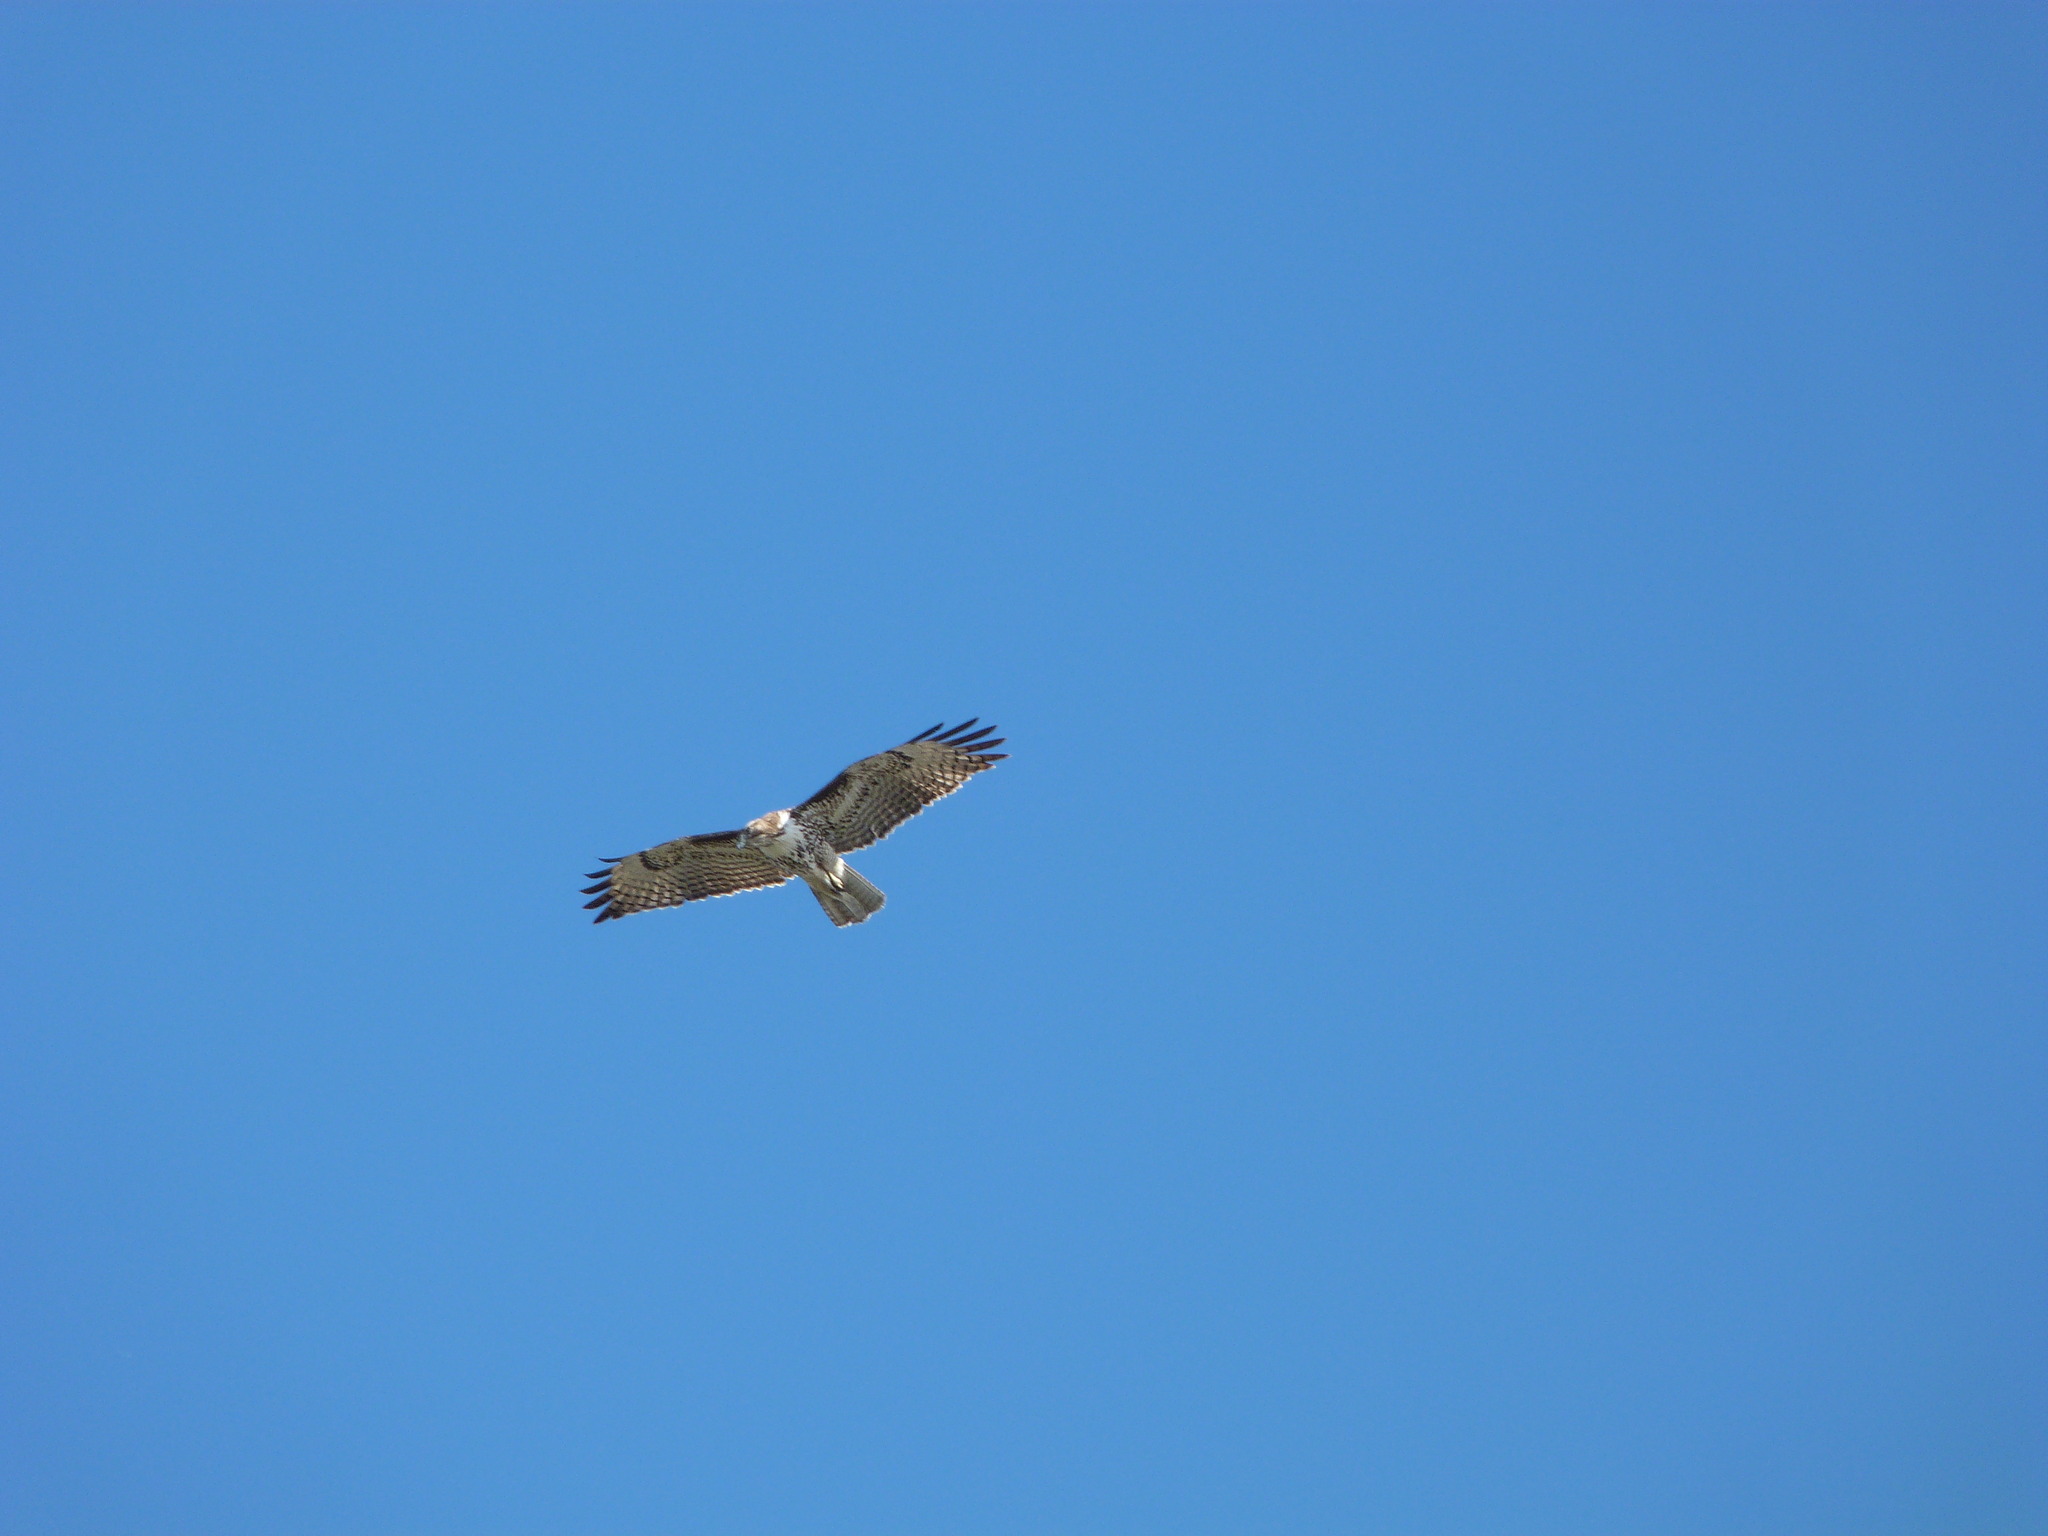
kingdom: Animalia
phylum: Chordata
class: Aves
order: Accipitriformes
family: Accipitridae
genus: Buteo
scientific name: Buteo jamaicensis
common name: Red-tailed hawk
